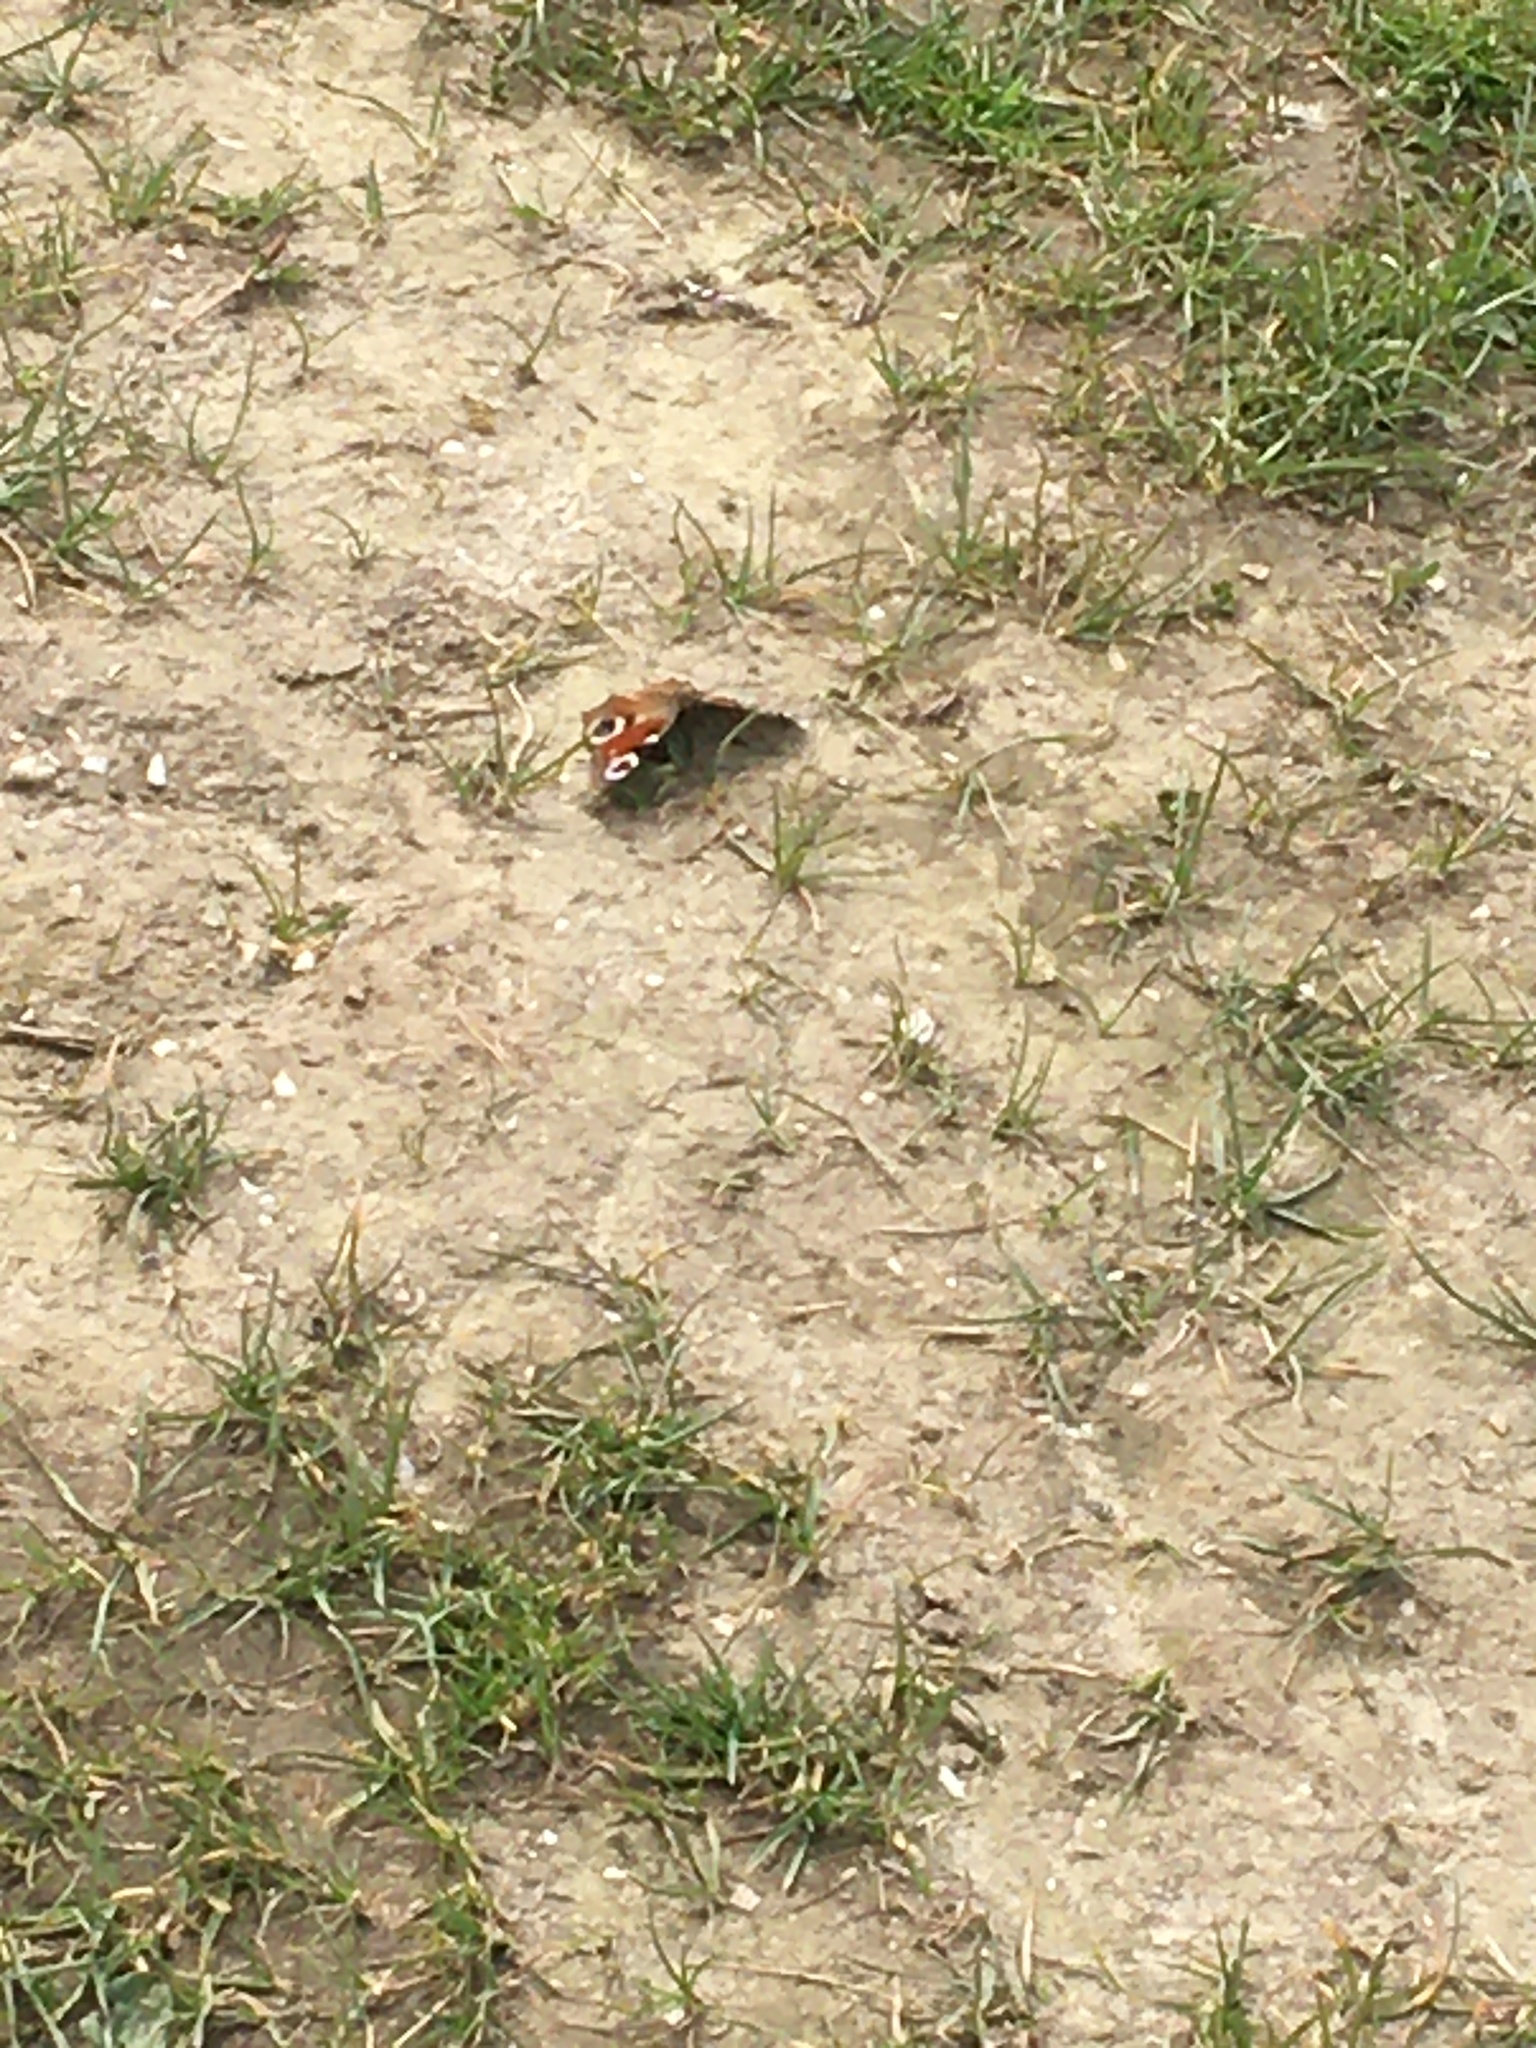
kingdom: Animalia
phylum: Arthropoda
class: Insecta
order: Lepidoptera
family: Nymphalidae
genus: Aglais
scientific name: Aglais io
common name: Peacock
